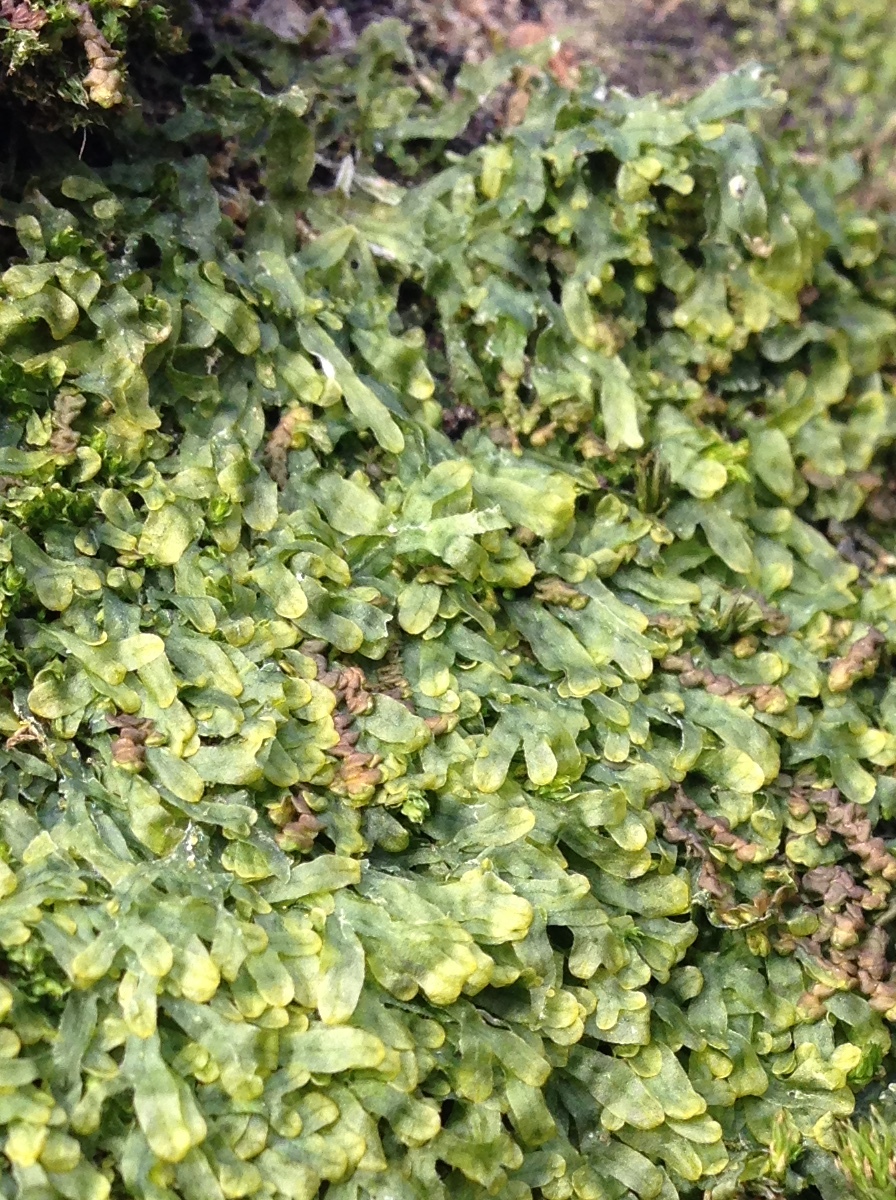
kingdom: Plantae
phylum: Marchantiophyta
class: Jungermanniopsida
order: Metzgeriales
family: Metzgeriaceae
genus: Metzgeria
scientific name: Metzgeria furcata
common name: Forked veilwort
